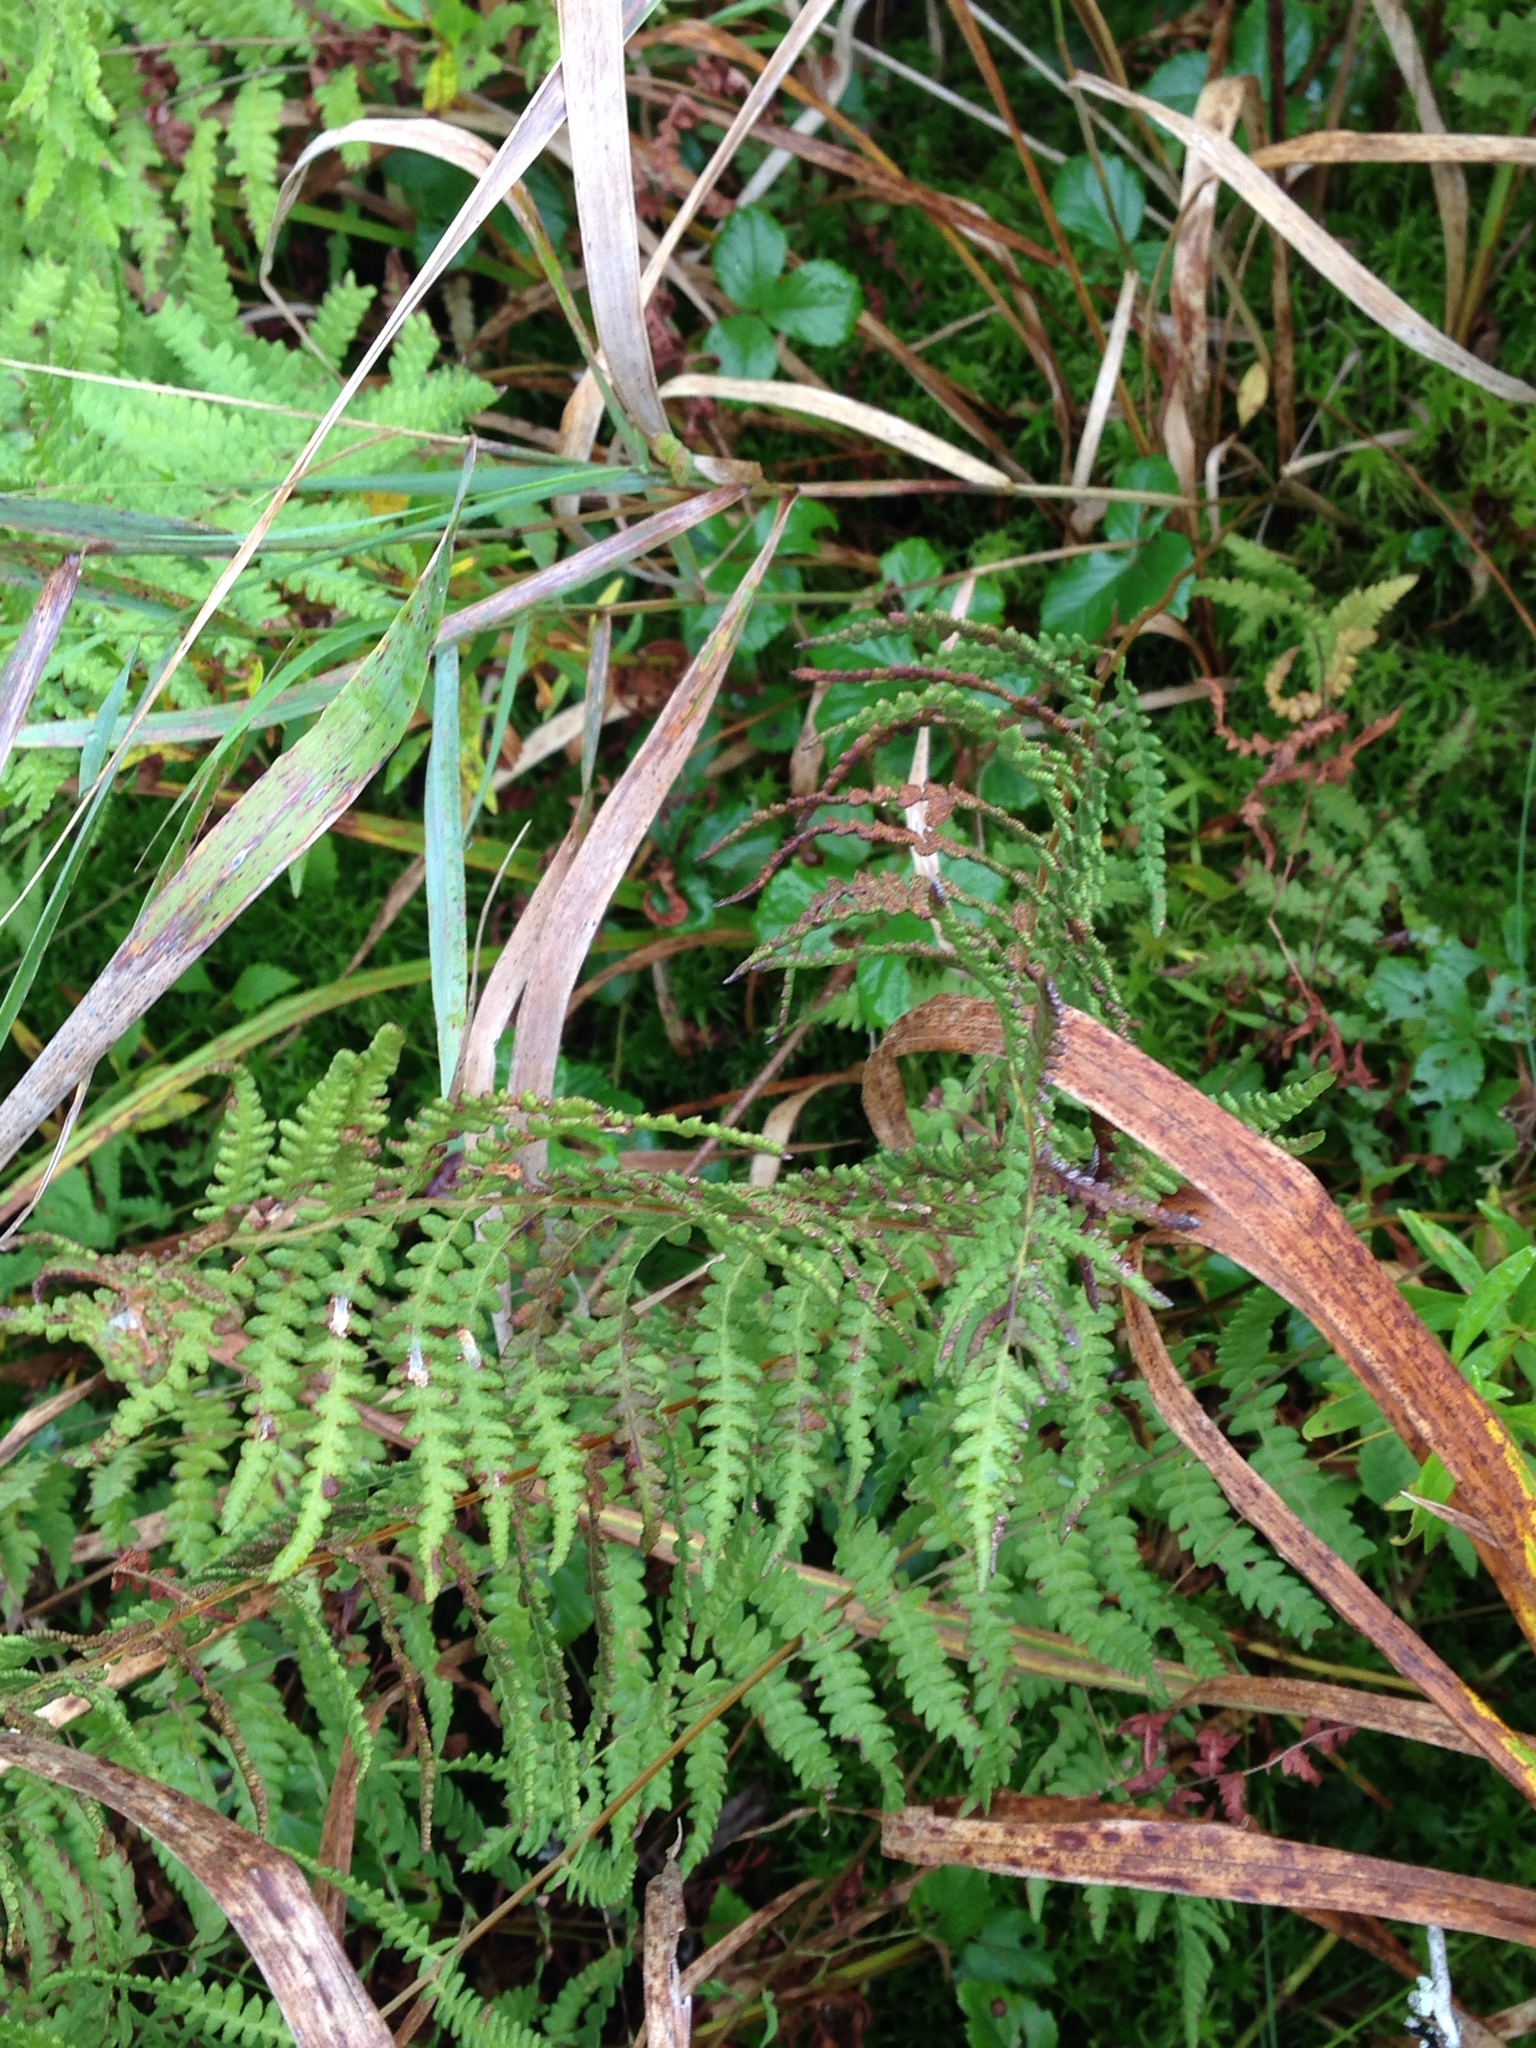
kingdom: Plantae
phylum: Tracheophyta
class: Polypodiopsida
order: Polypodiales
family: Thelypteridaceae
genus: Thelypteris
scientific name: Thelypteris palustris
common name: Marsh fern
